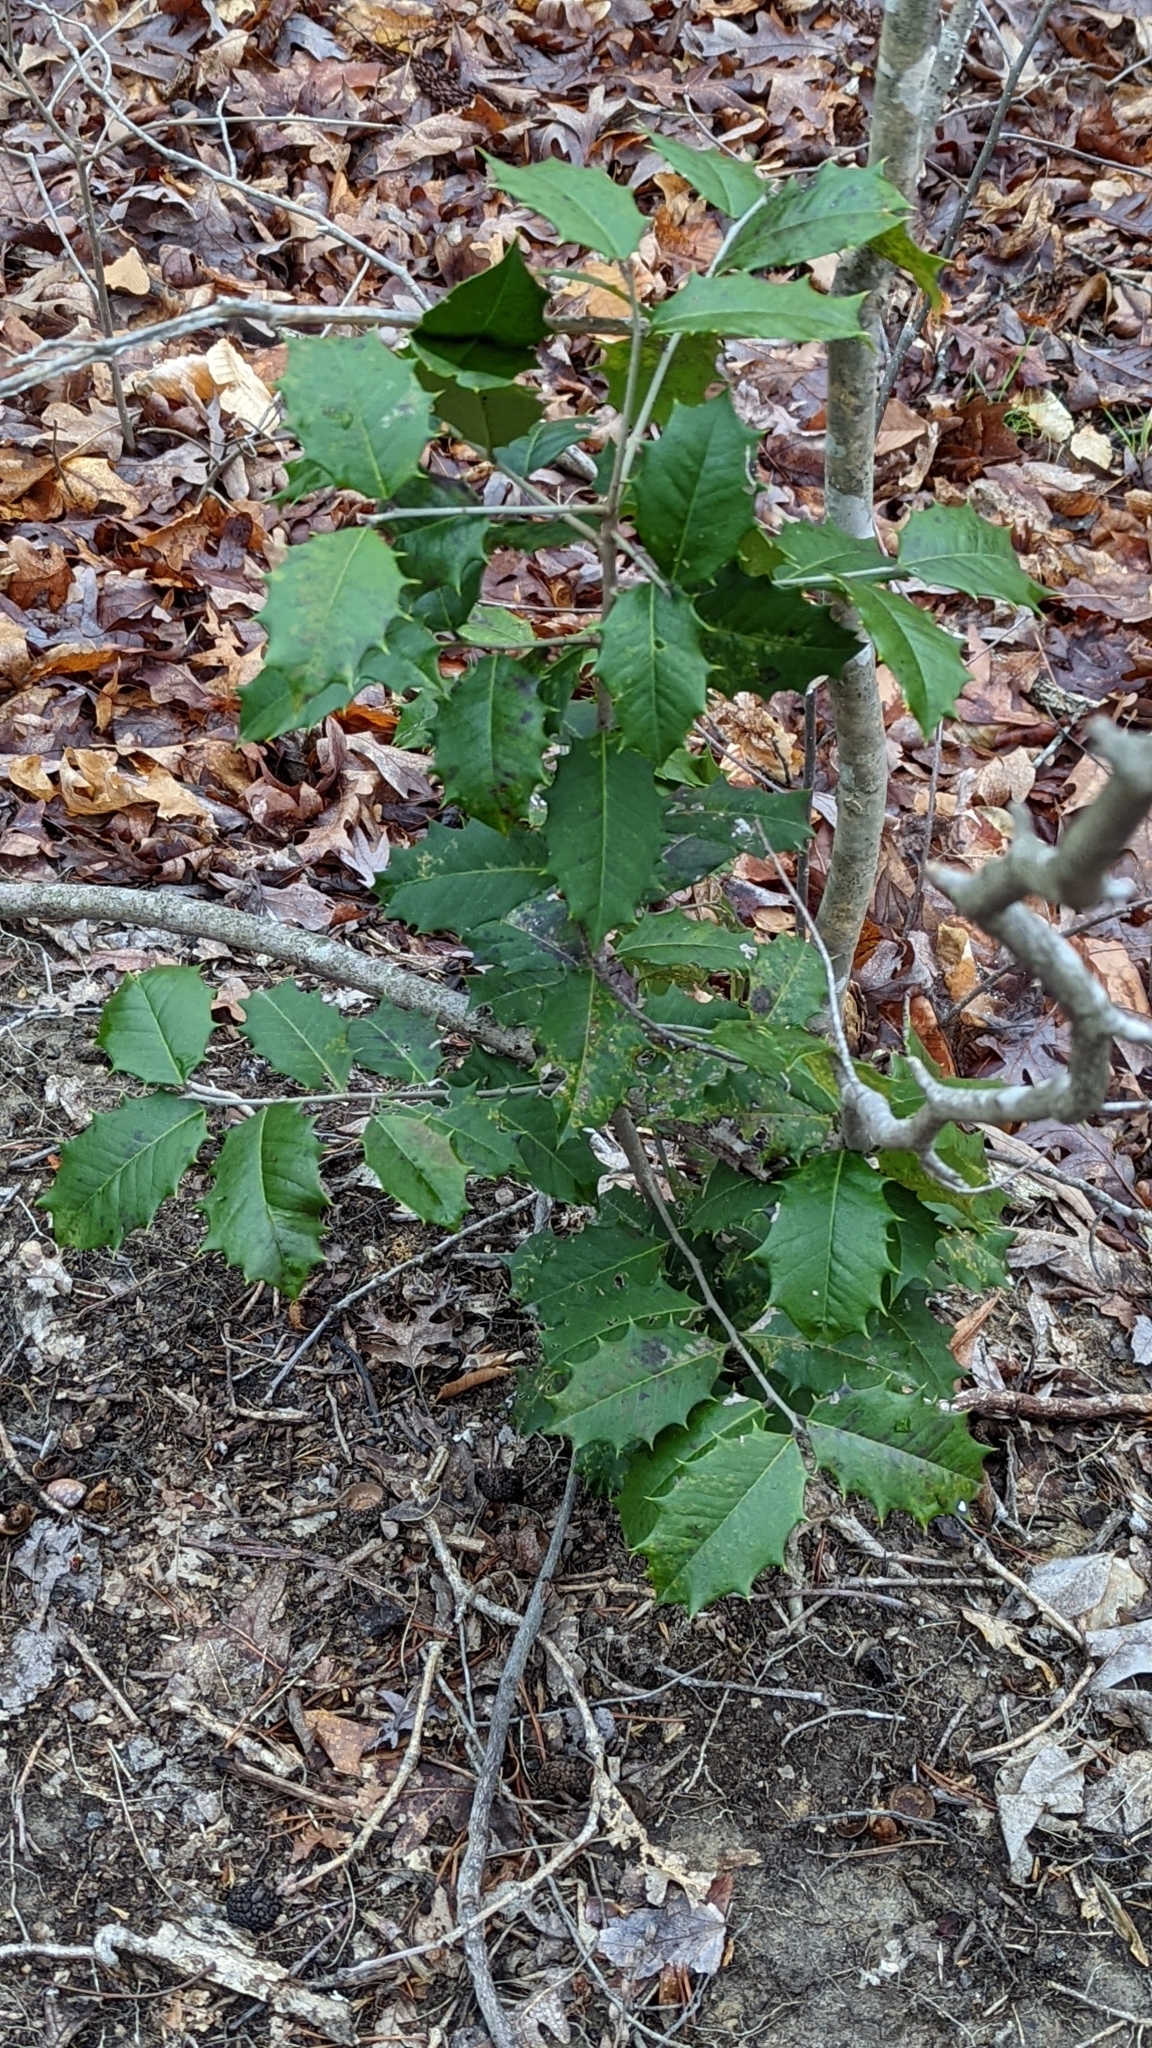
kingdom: Plantae
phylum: Tracheophyta
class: Magnoliopsida
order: Aquifoliales
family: Aquifoliaceae
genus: Ilex
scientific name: Ilex opaca
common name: American holly
